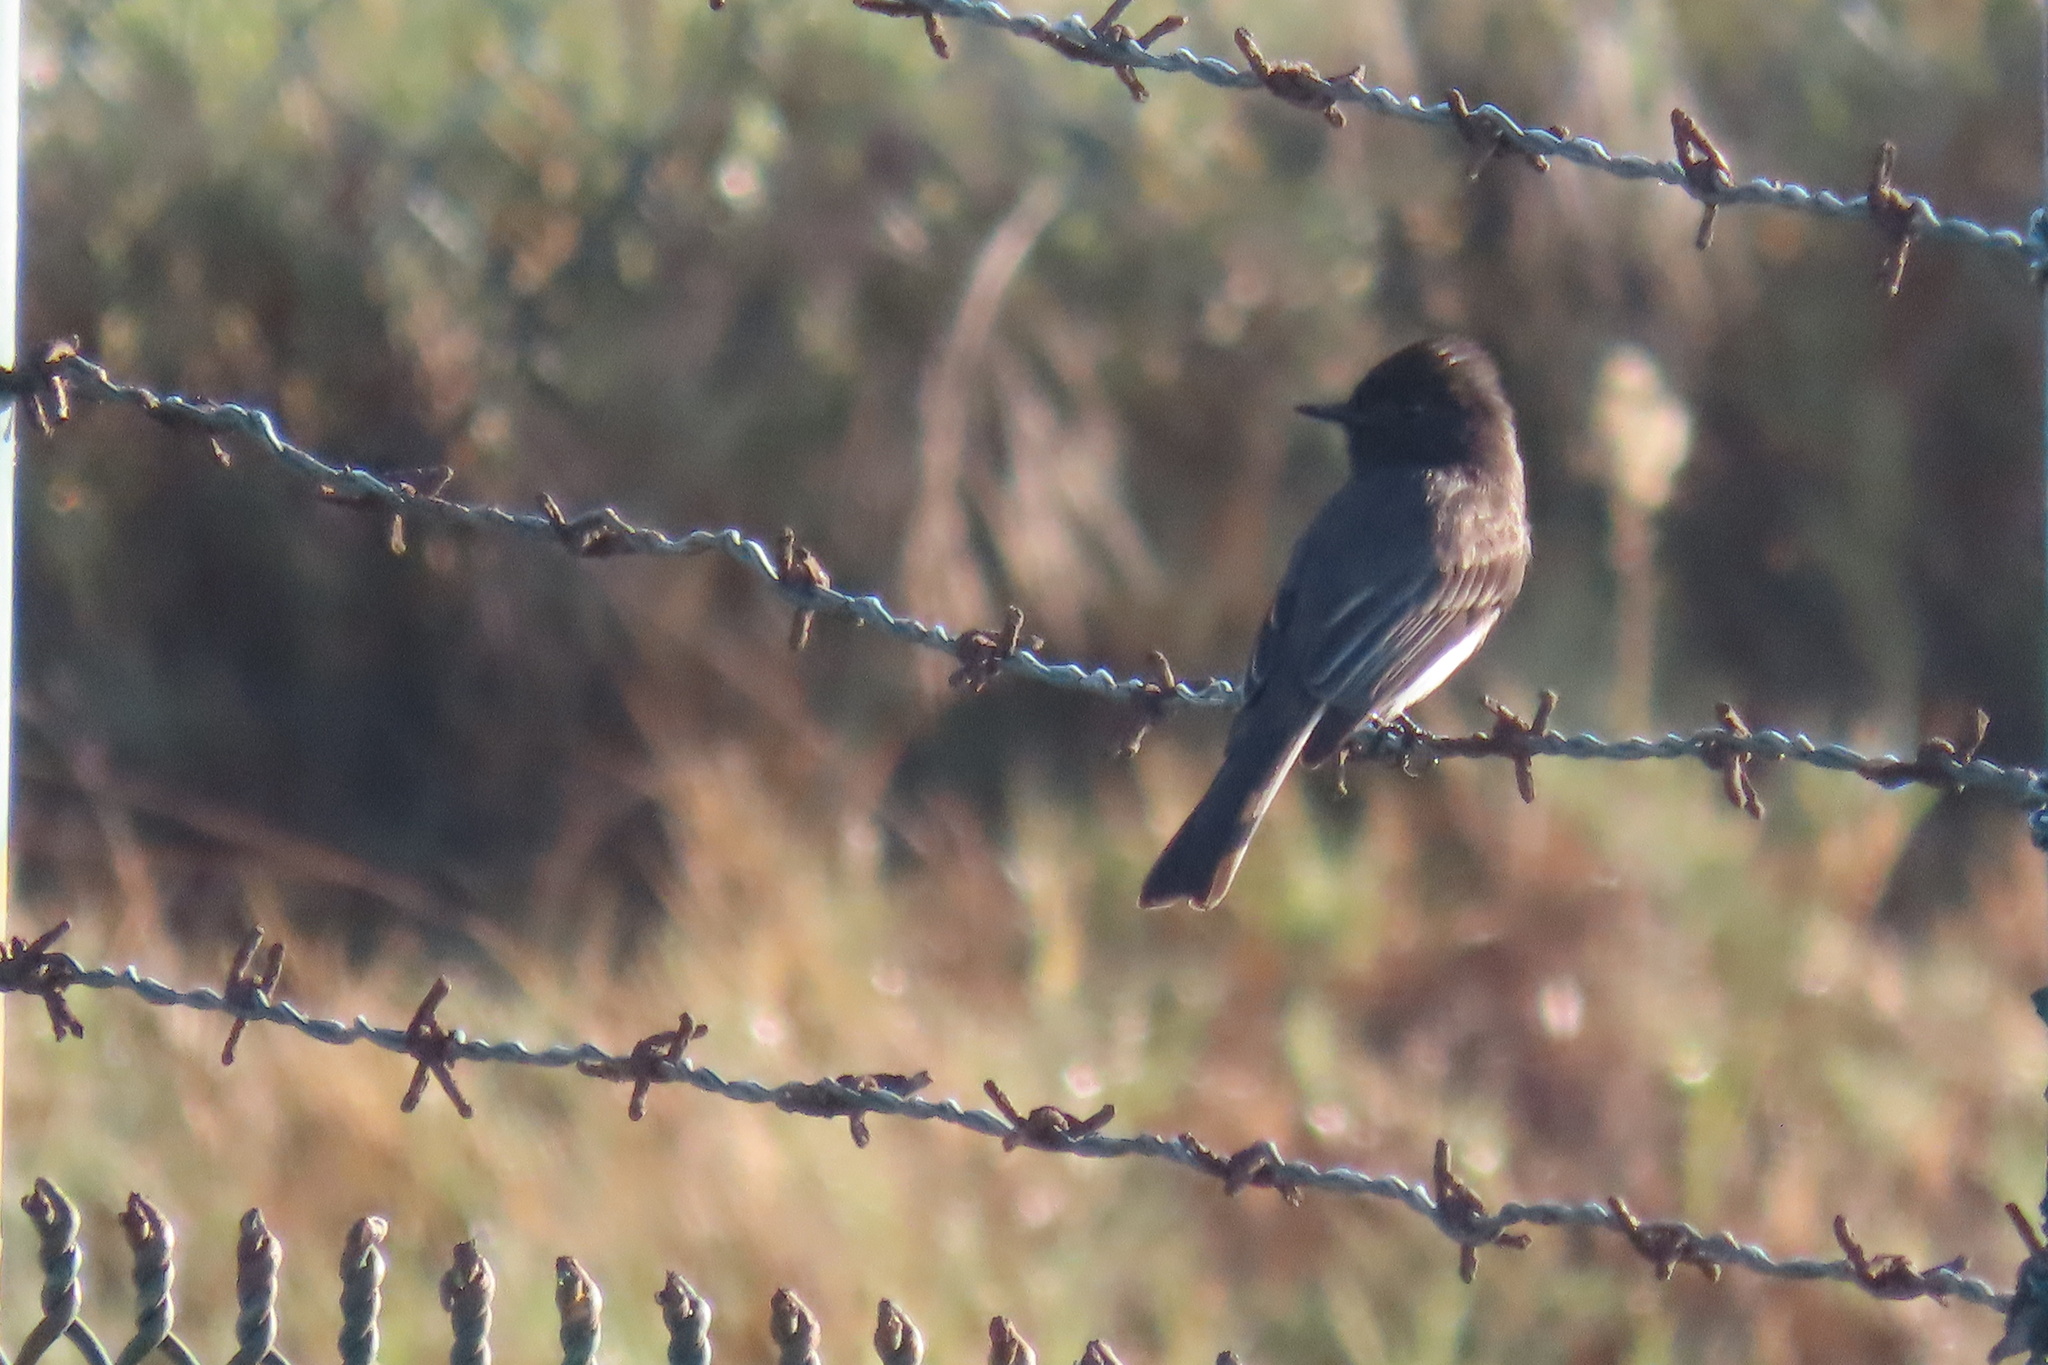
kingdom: Animalia
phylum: Chordata
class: Aves
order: Passeriformes
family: Tyrannidae
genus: Sayornis
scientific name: Sayornis nigricans
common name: Black phoebe
